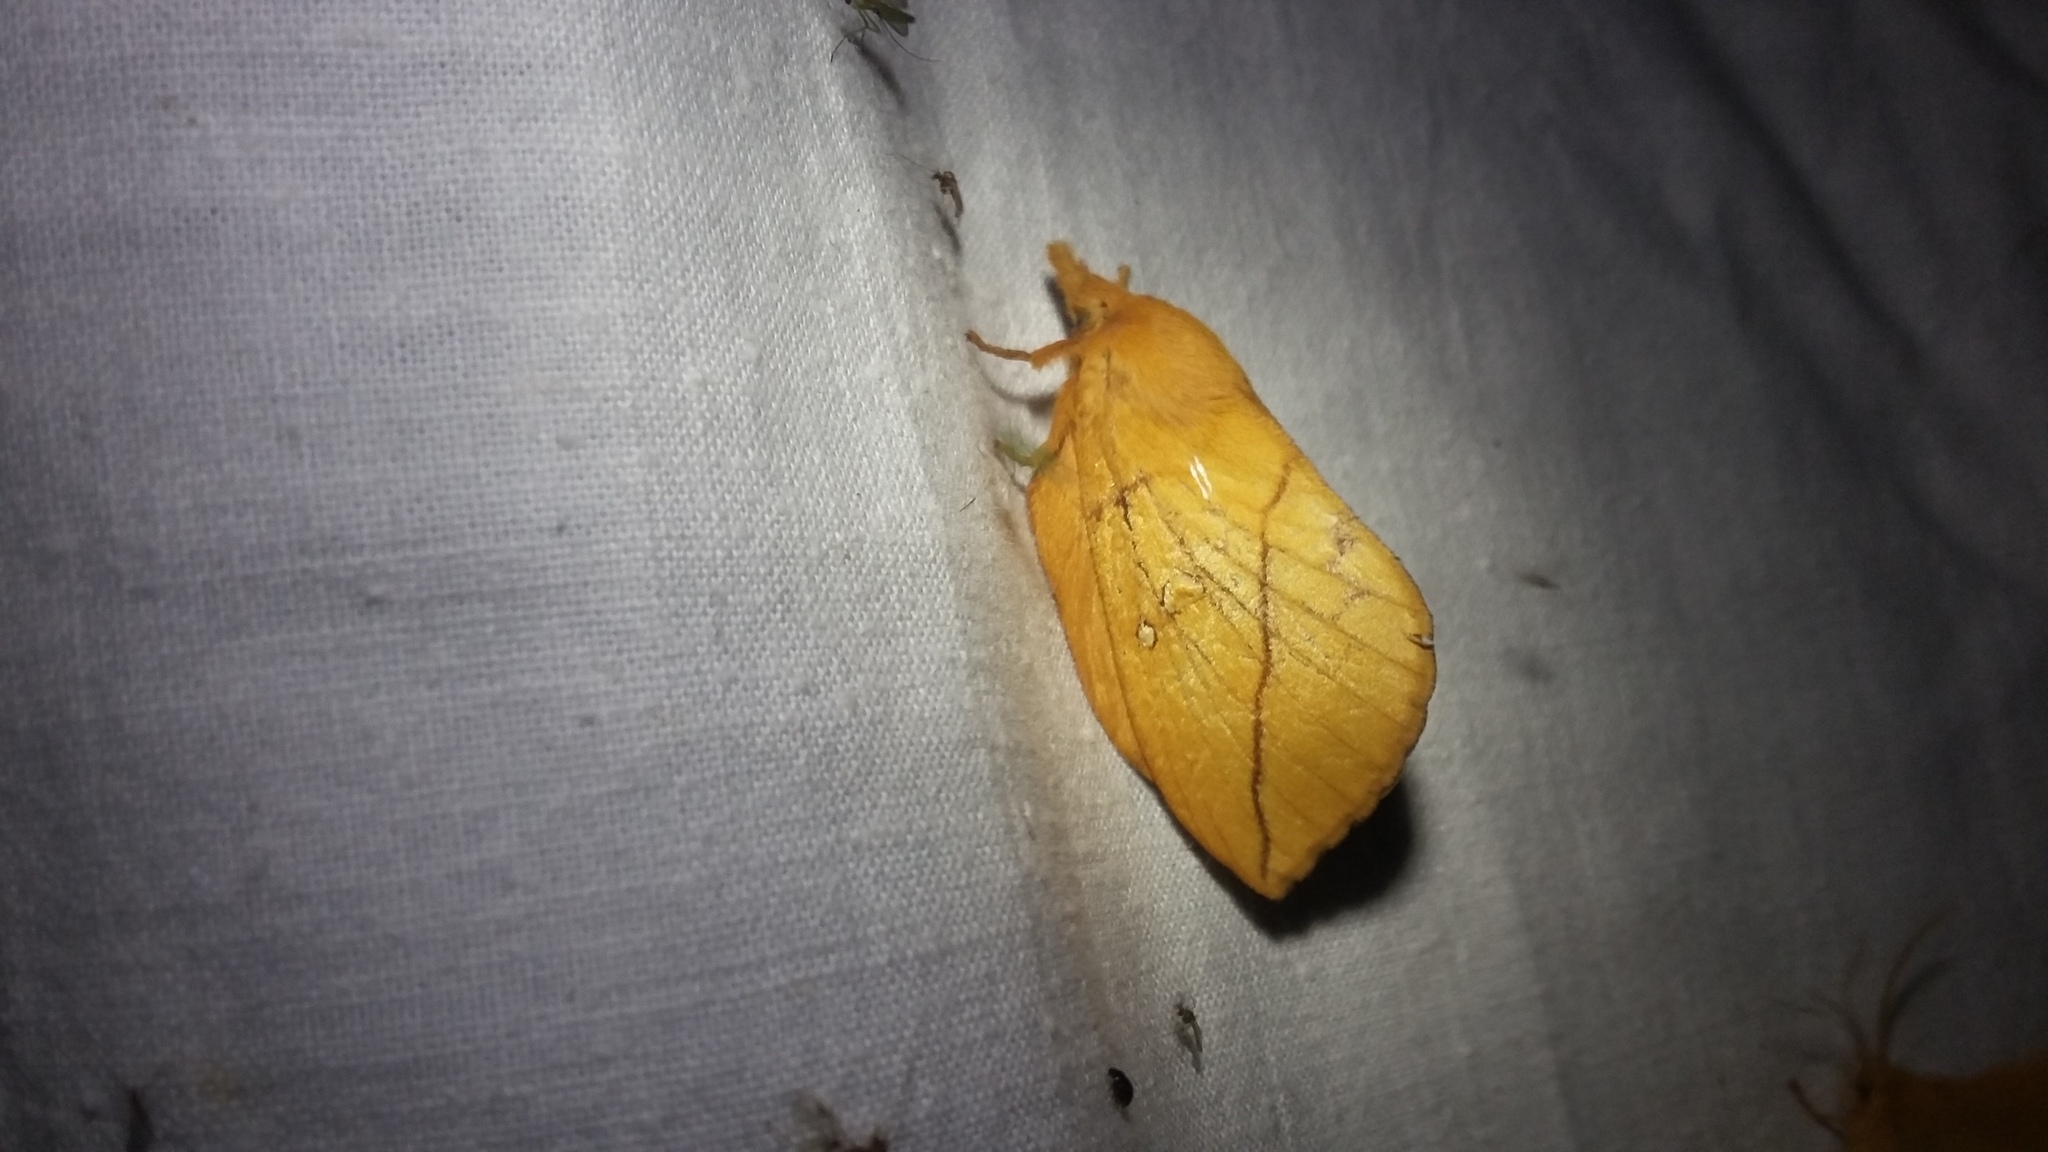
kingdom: Animalia
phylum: Arthropoda
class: Insecta
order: Lepidoptera
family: Lasiocampidae
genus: Euthrix
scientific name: Euthrix potatoria
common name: Drinker
